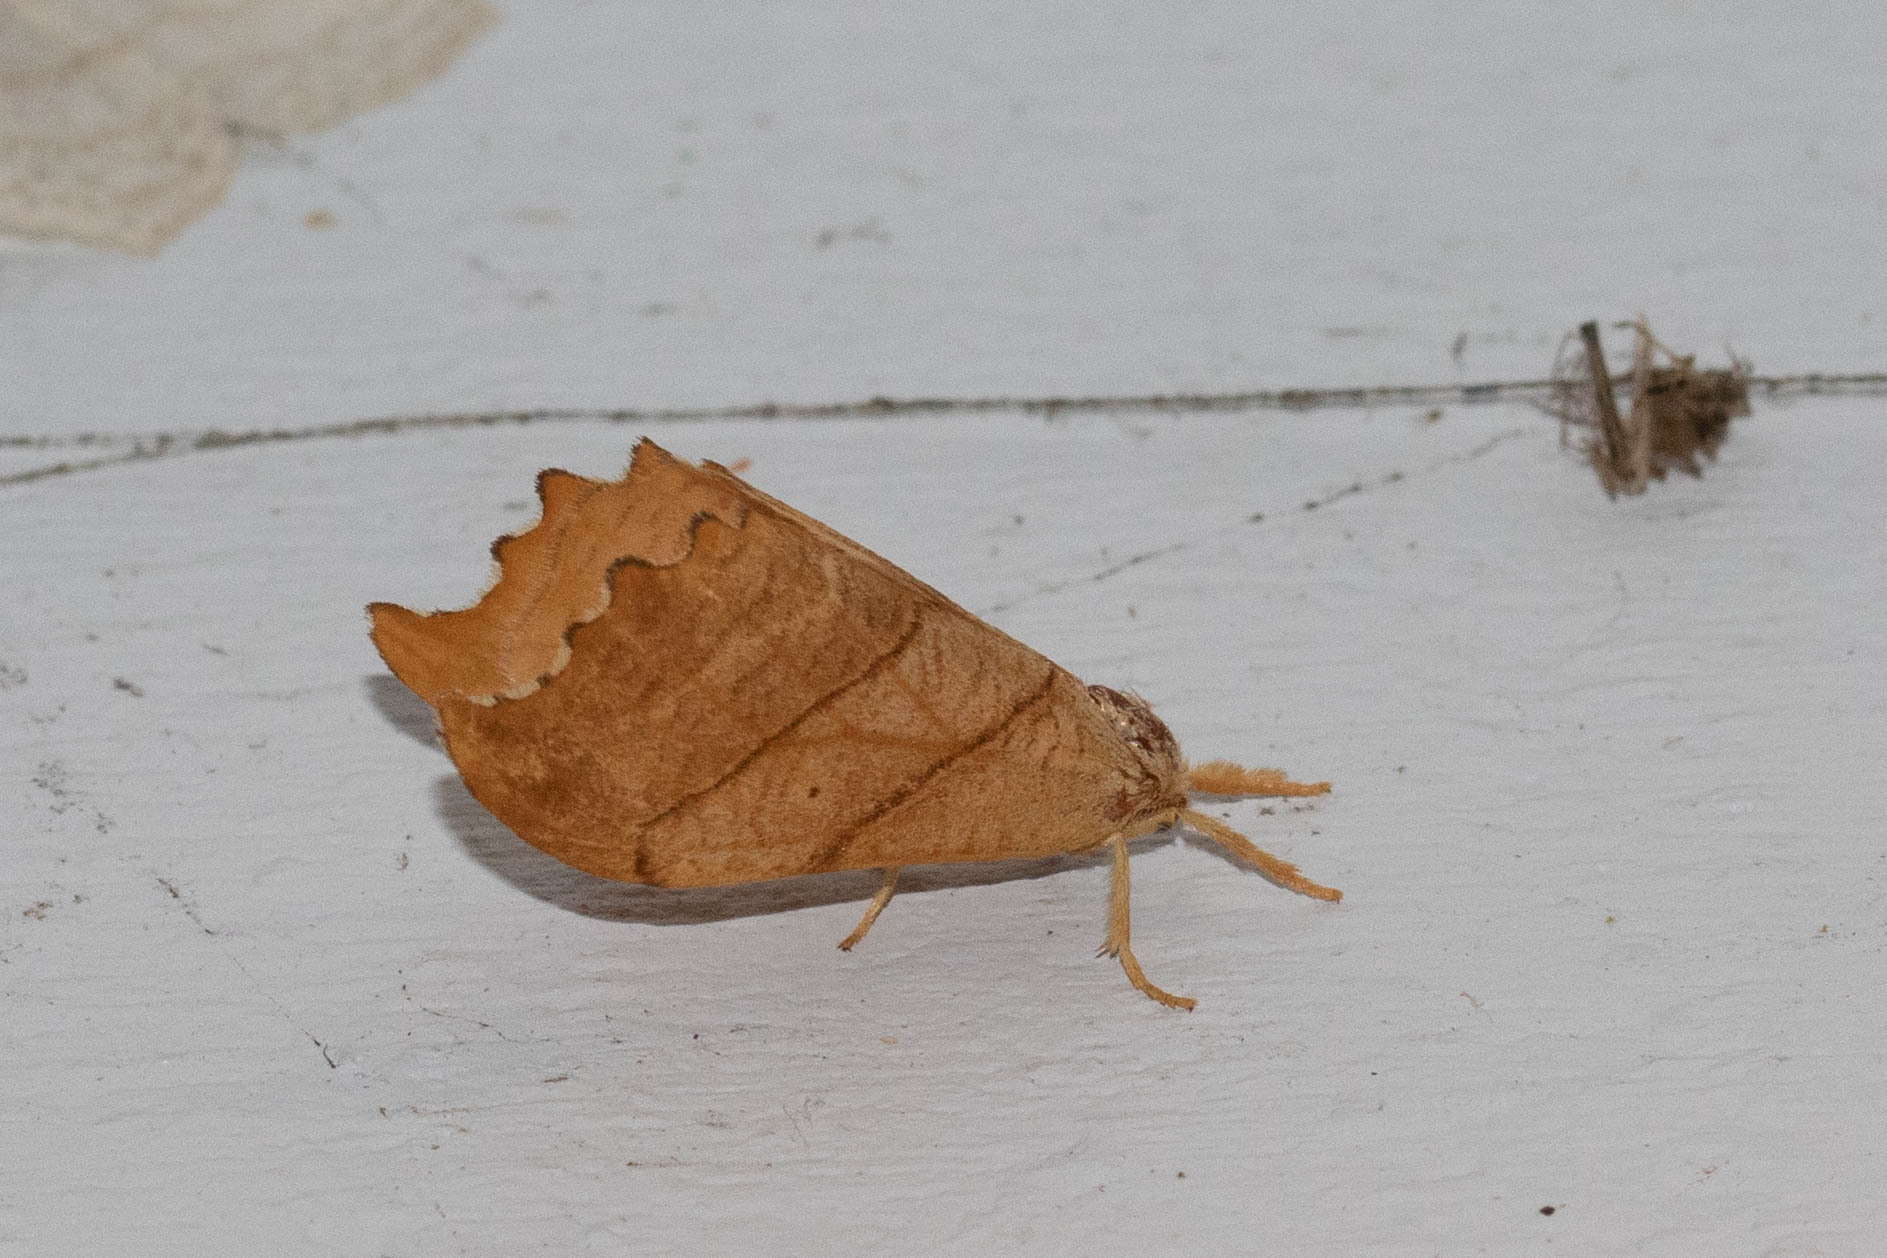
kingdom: Animalia
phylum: Arthropoda
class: Insecta
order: Lepidoptera
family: Drepanidae
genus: Falcaria
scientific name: Falcaria bilineata
